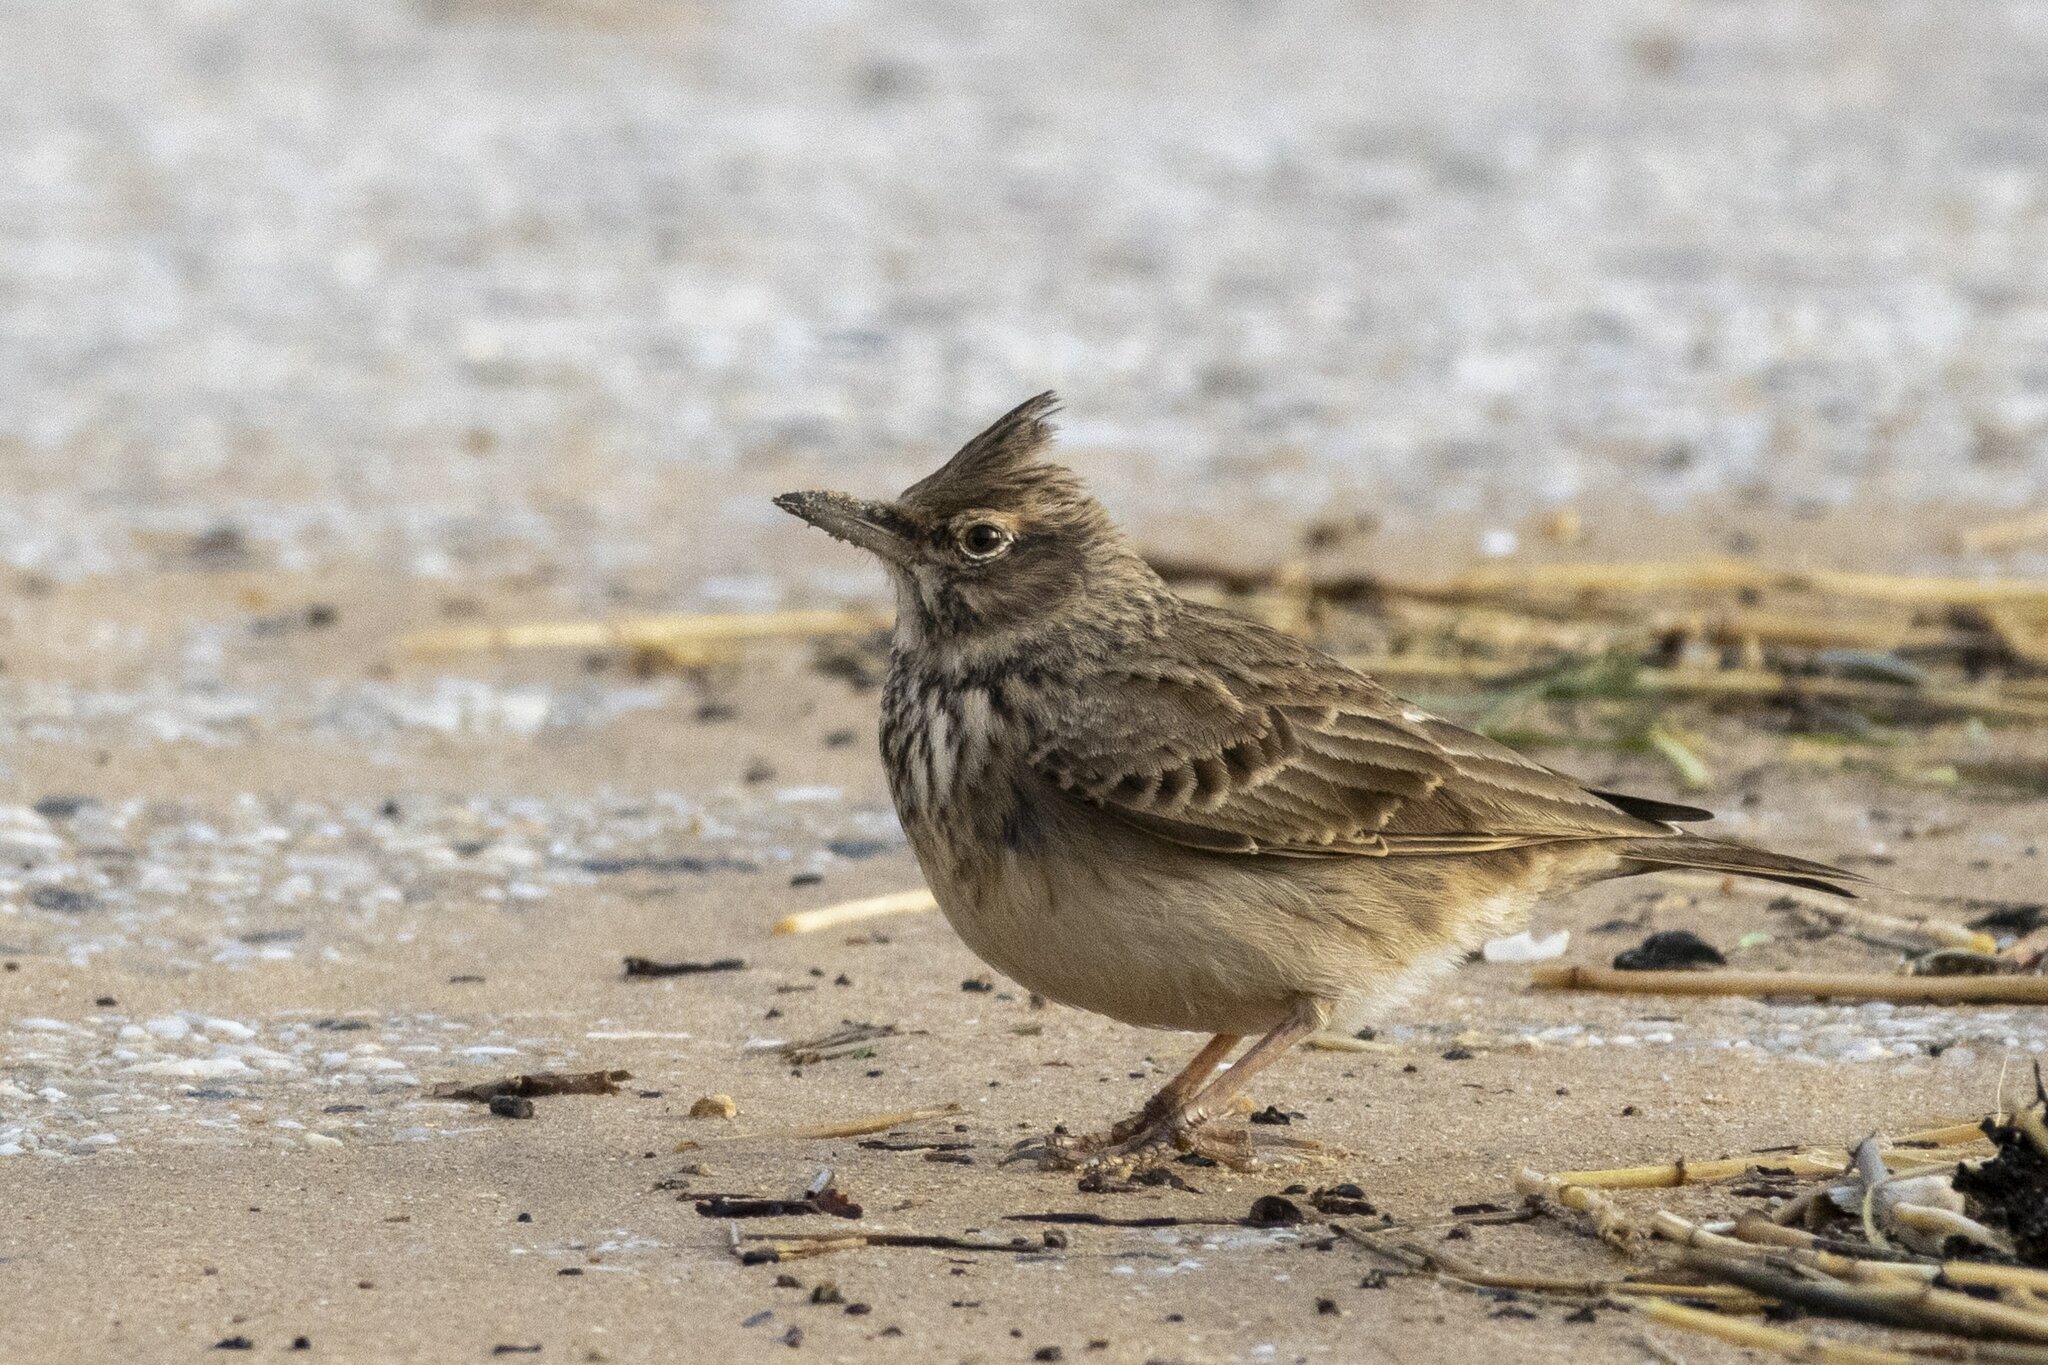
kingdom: Animalia
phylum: Chordata
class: Aves
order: Passeriformes
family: Alaudidae
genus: Galerida
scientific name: Galerida cristata
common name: Crested lark
